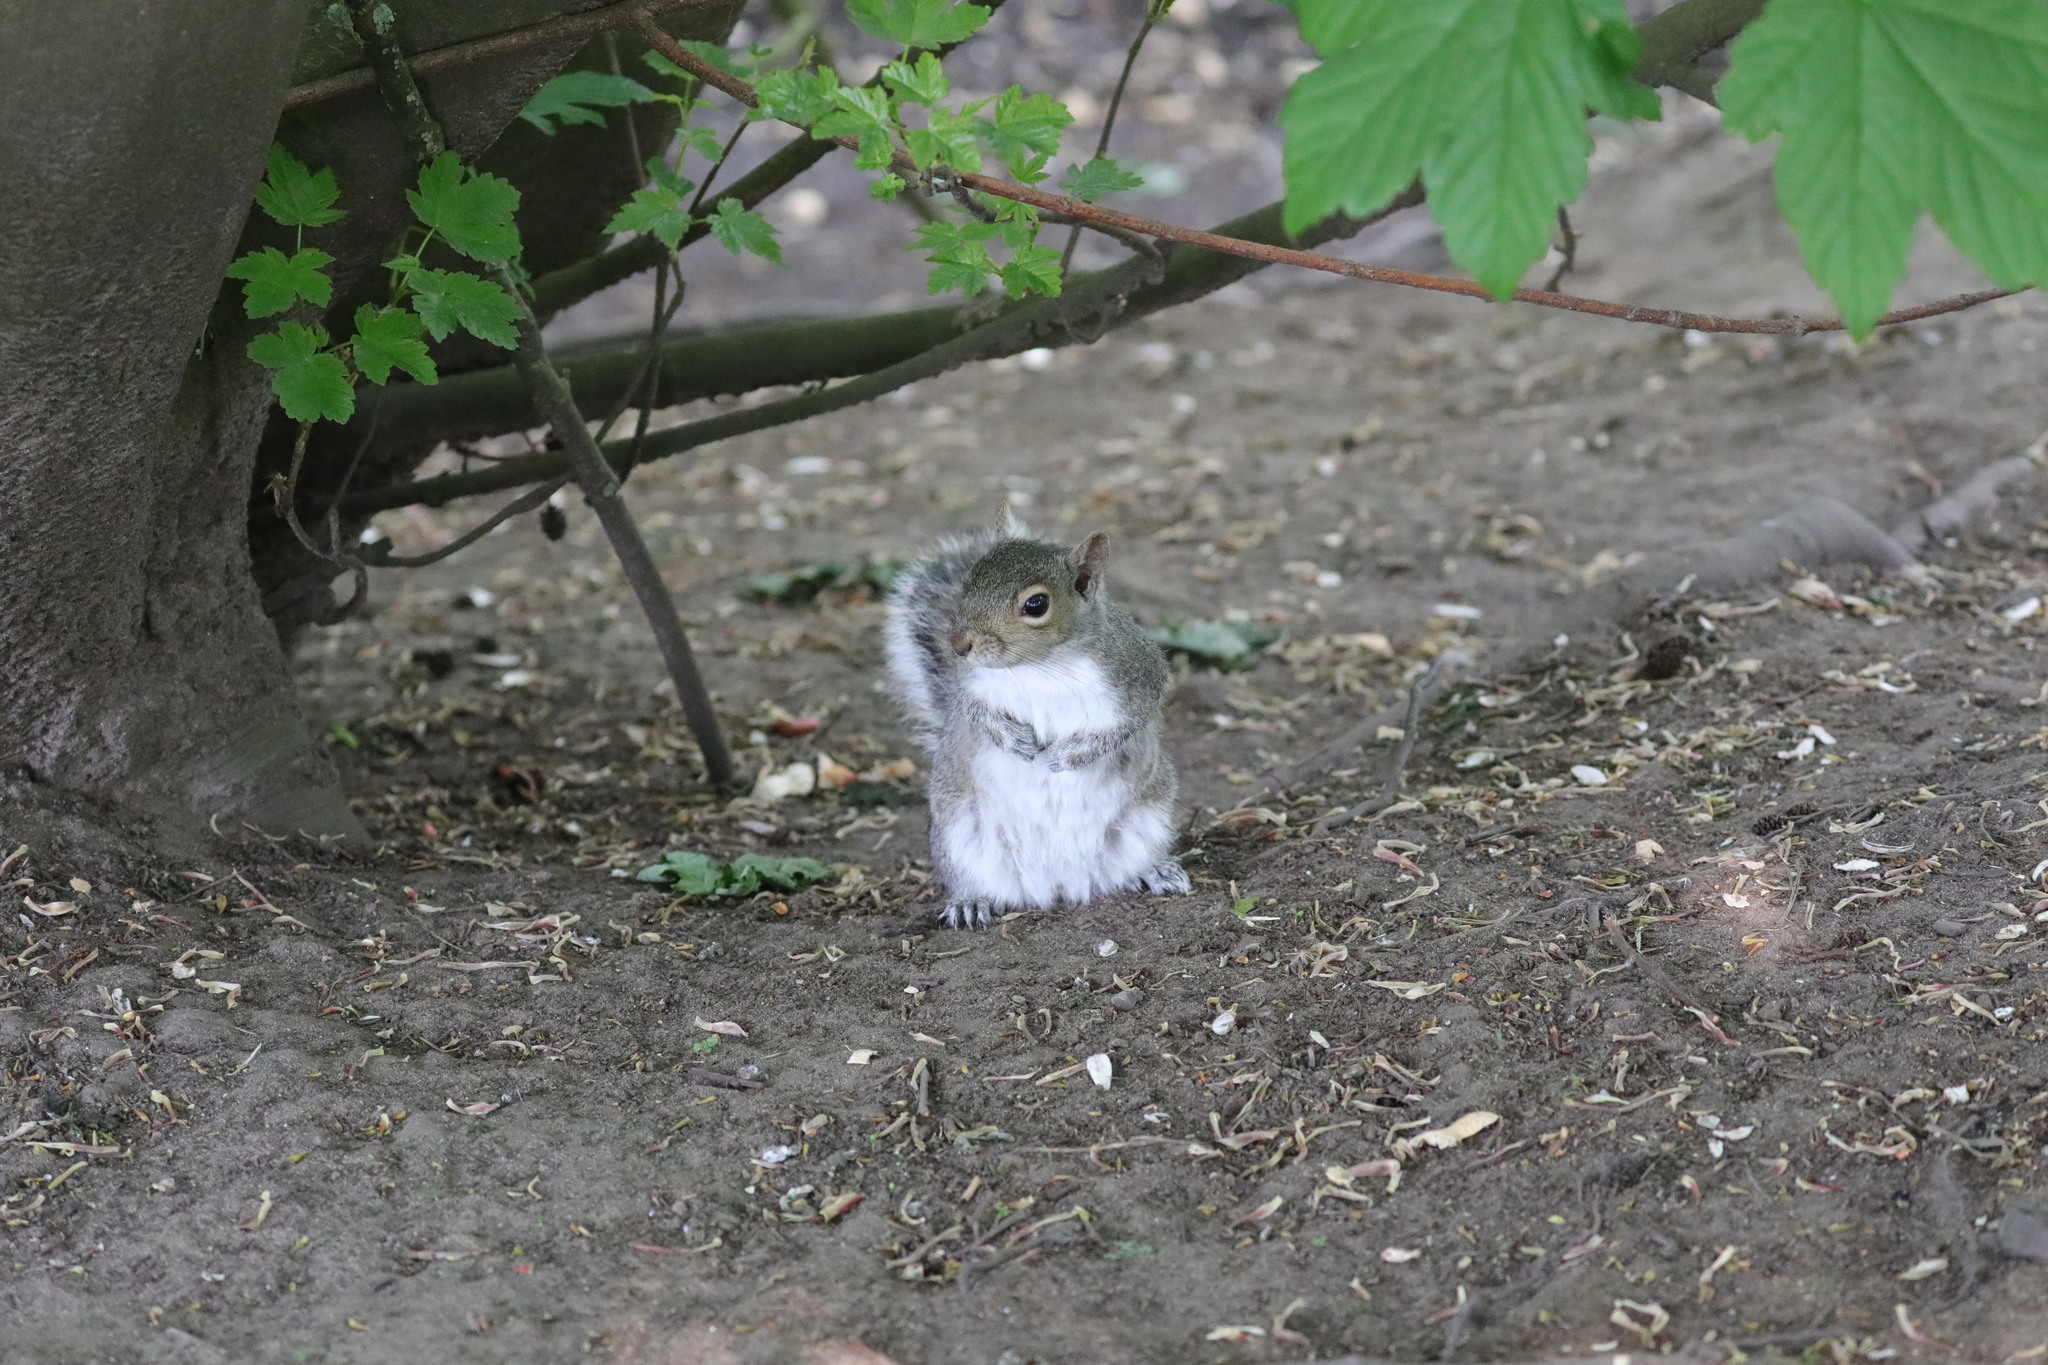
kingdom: Animalia
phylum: Chordata
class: Mammalia
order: Rodentia
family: Sciuridae
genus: Sciurus
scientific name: Sciurus carolinensis
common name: Eastern gray squirrel
